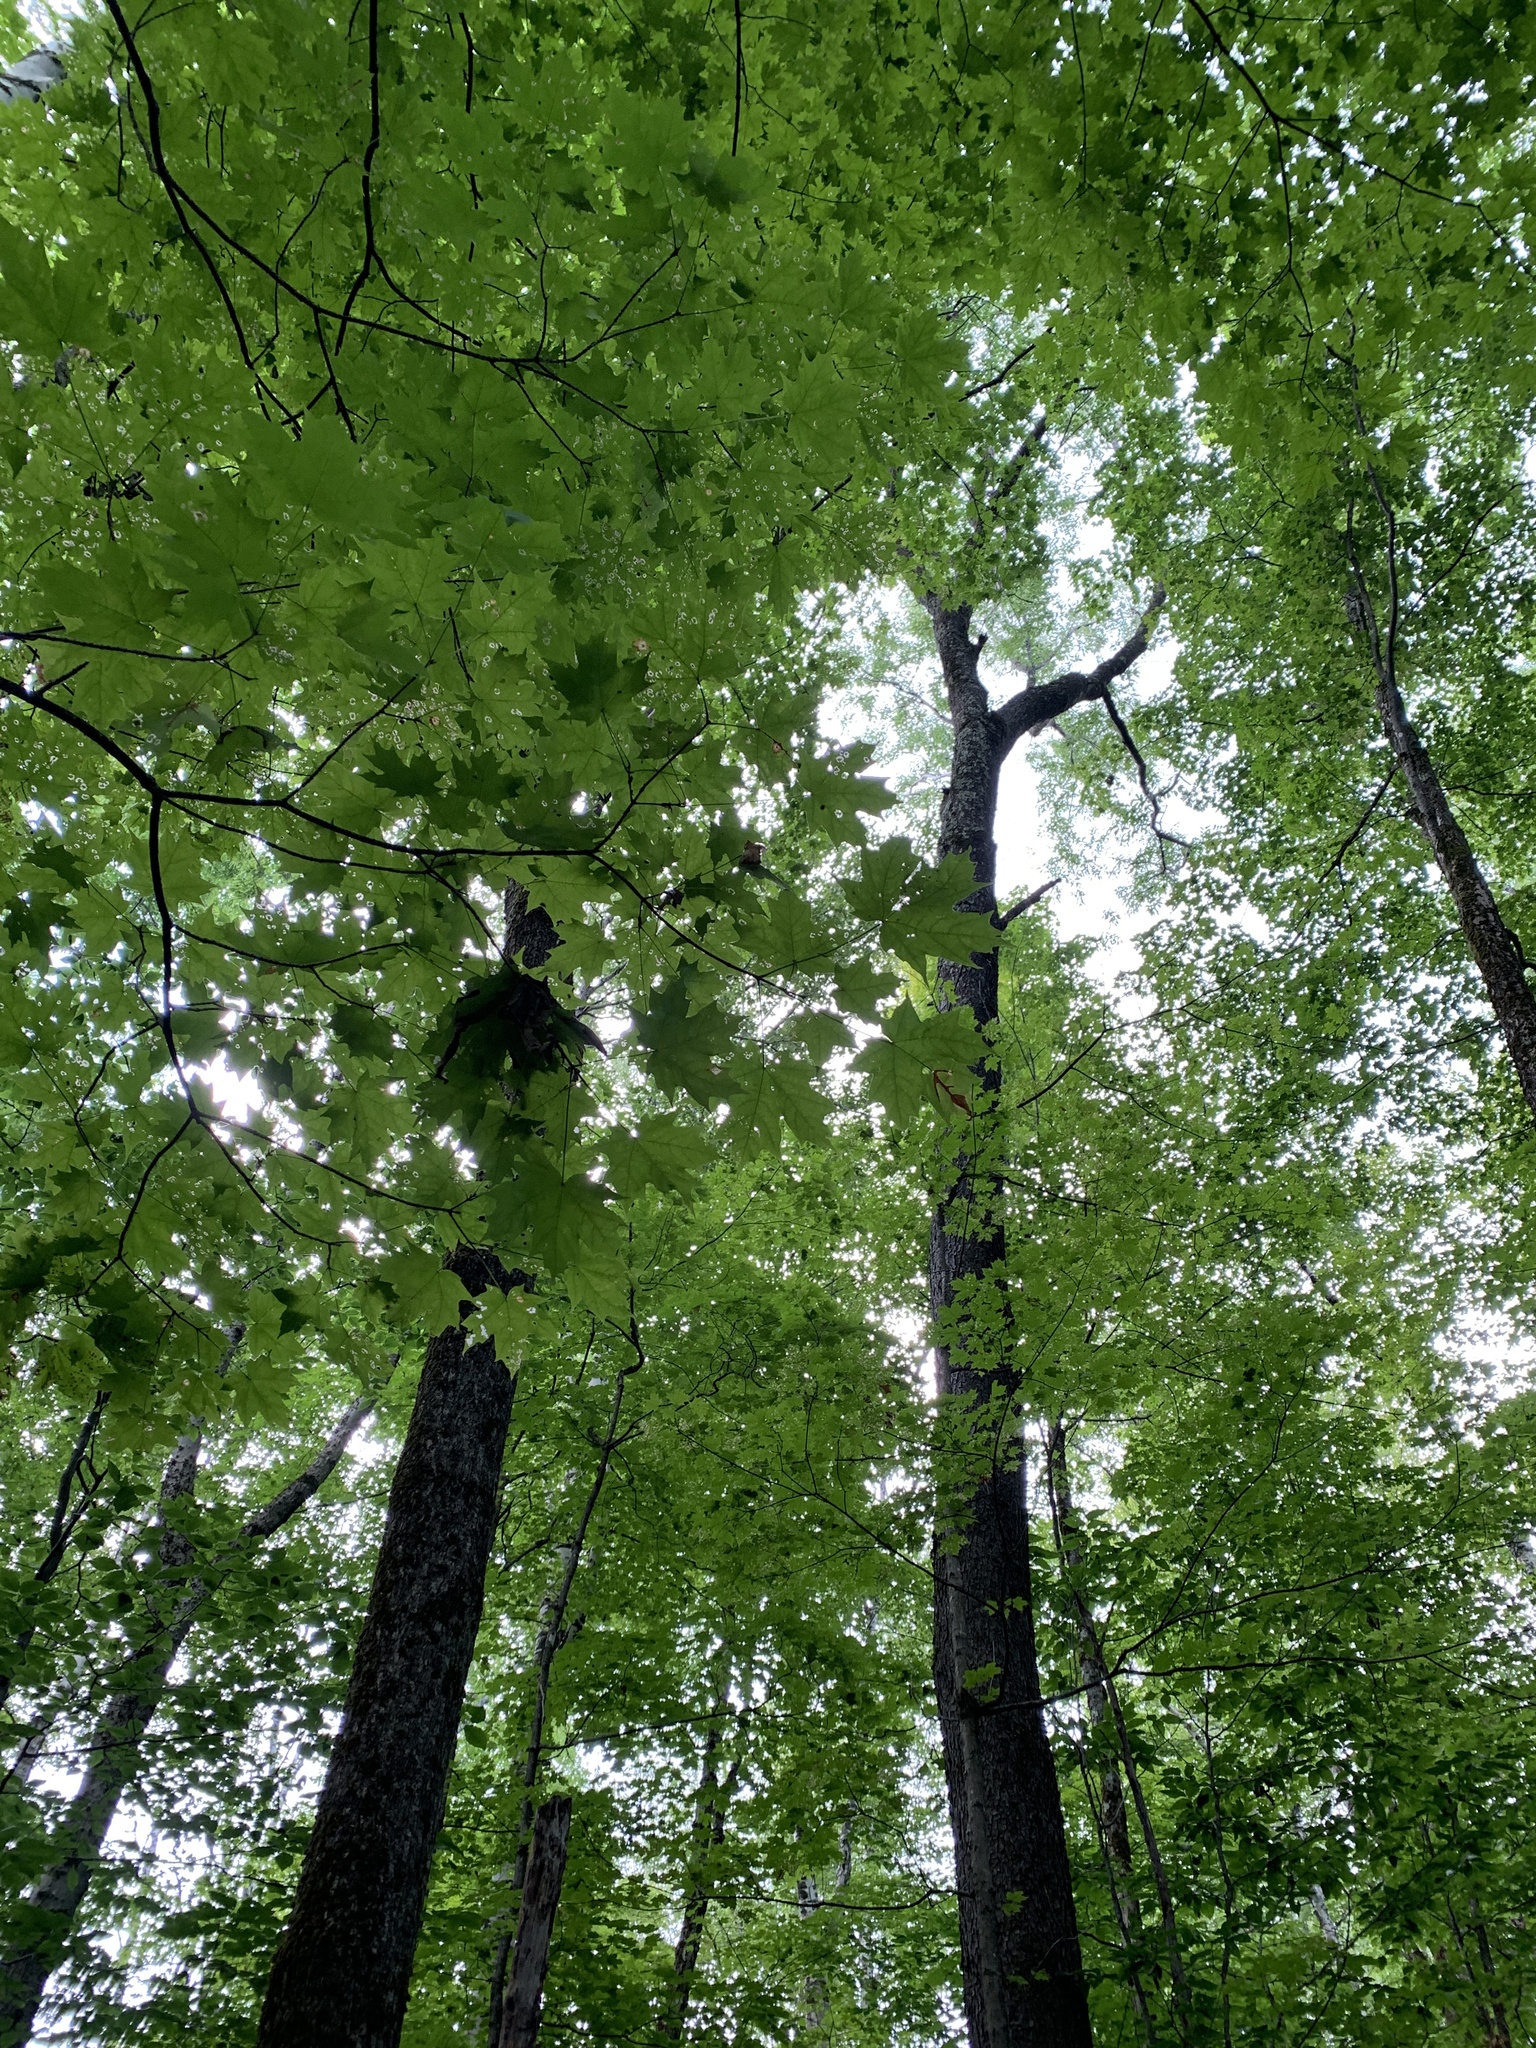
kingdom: Plantae
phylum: Tracheophyta
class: Magnoliopsida
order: Sapindales
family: Sapindaceae
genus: Acer
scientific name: Acer saccharum
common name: Sugar maple
